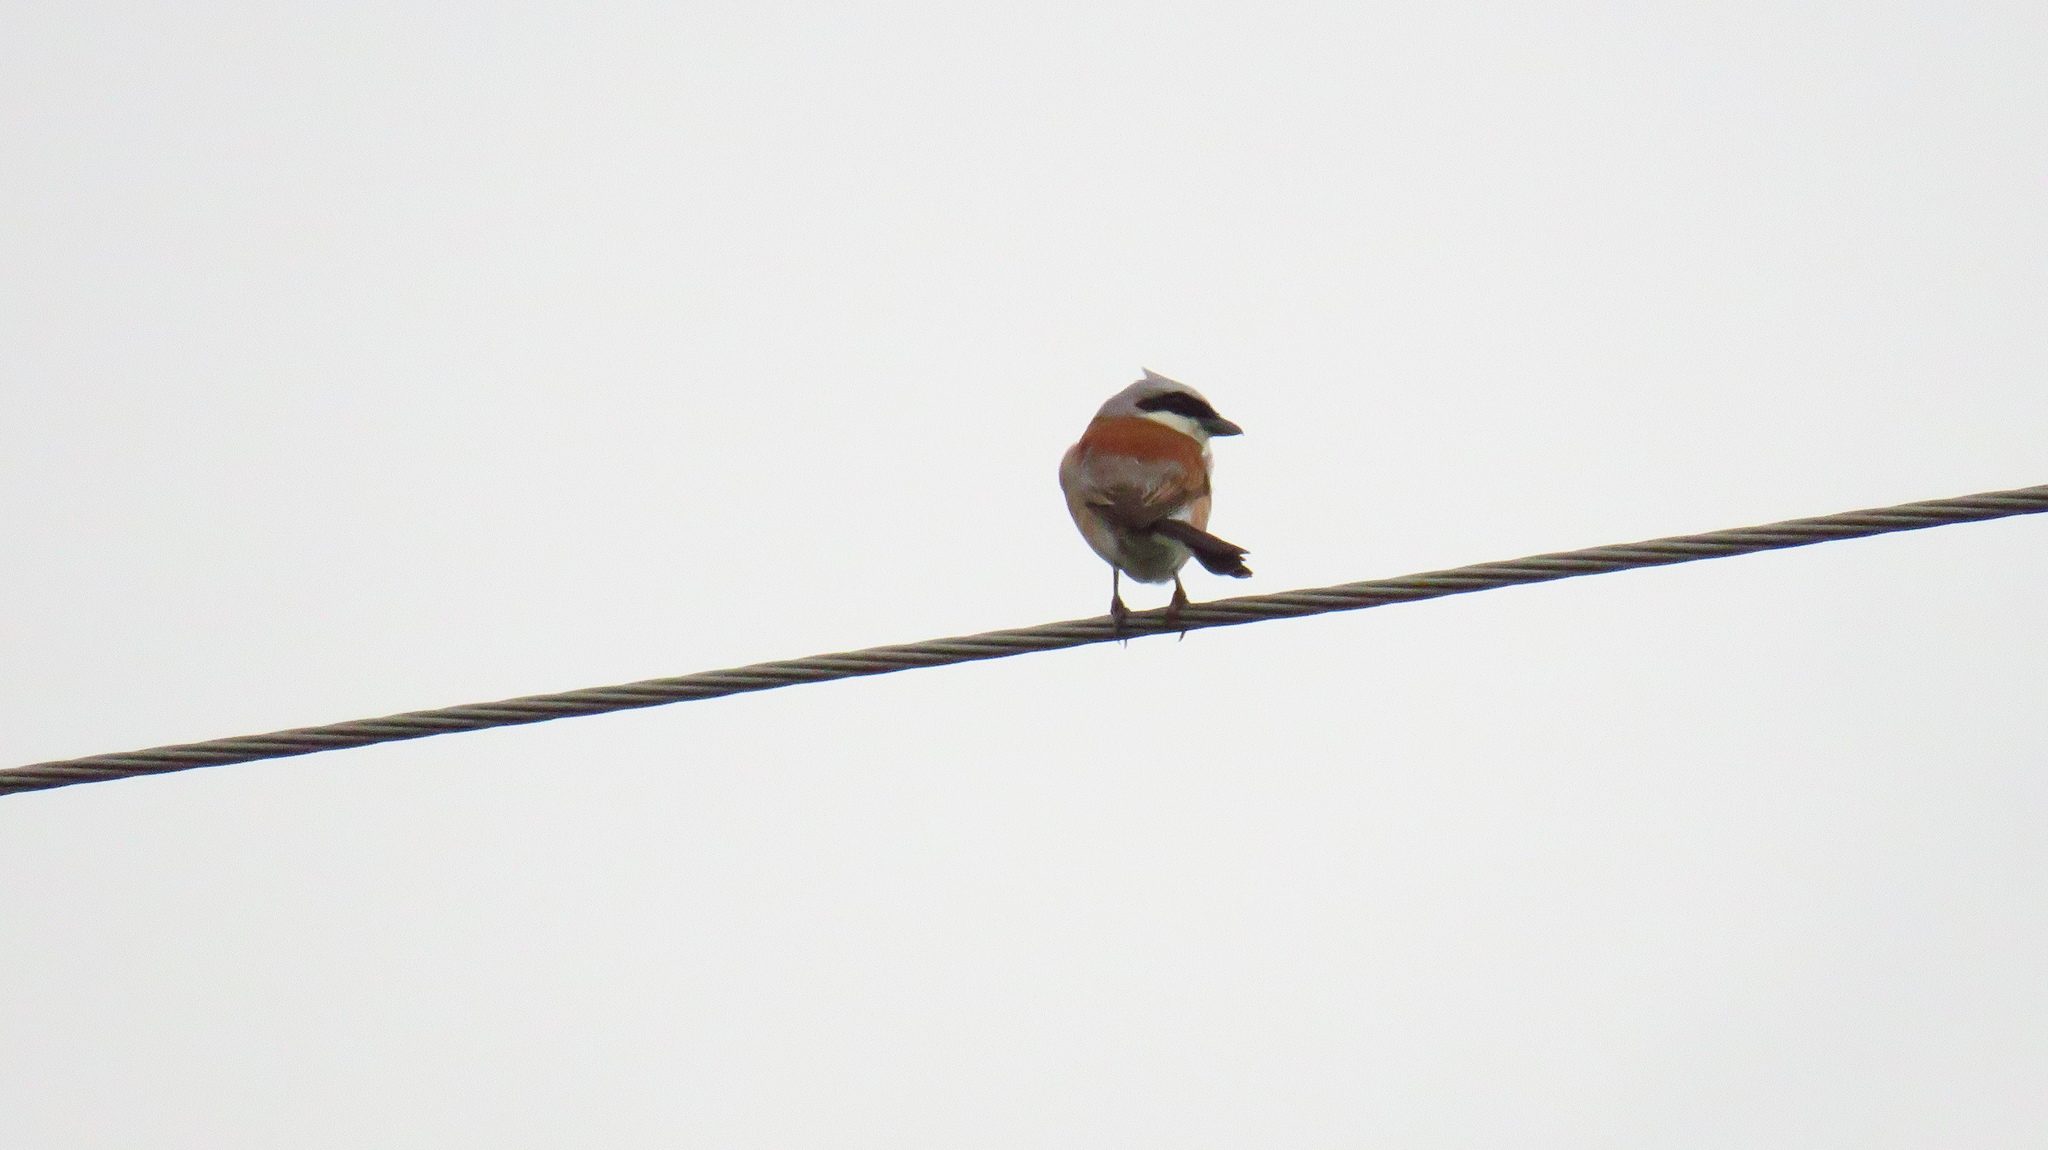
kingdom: Animalia
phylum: Chordata
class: Aves
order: Passeriformes
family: Laniidae
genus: Lanius
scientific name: Lanius collurio
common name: Red-backed shrike
